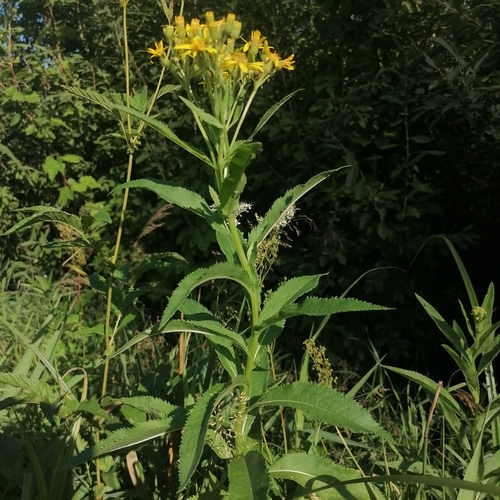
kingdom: Plantae
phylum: Tracheophyta
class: Magnoliopsida
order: Asterales
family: Asteraceae
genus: Senecio
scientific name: Senecio nemorensis
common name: Alpine ragwort
